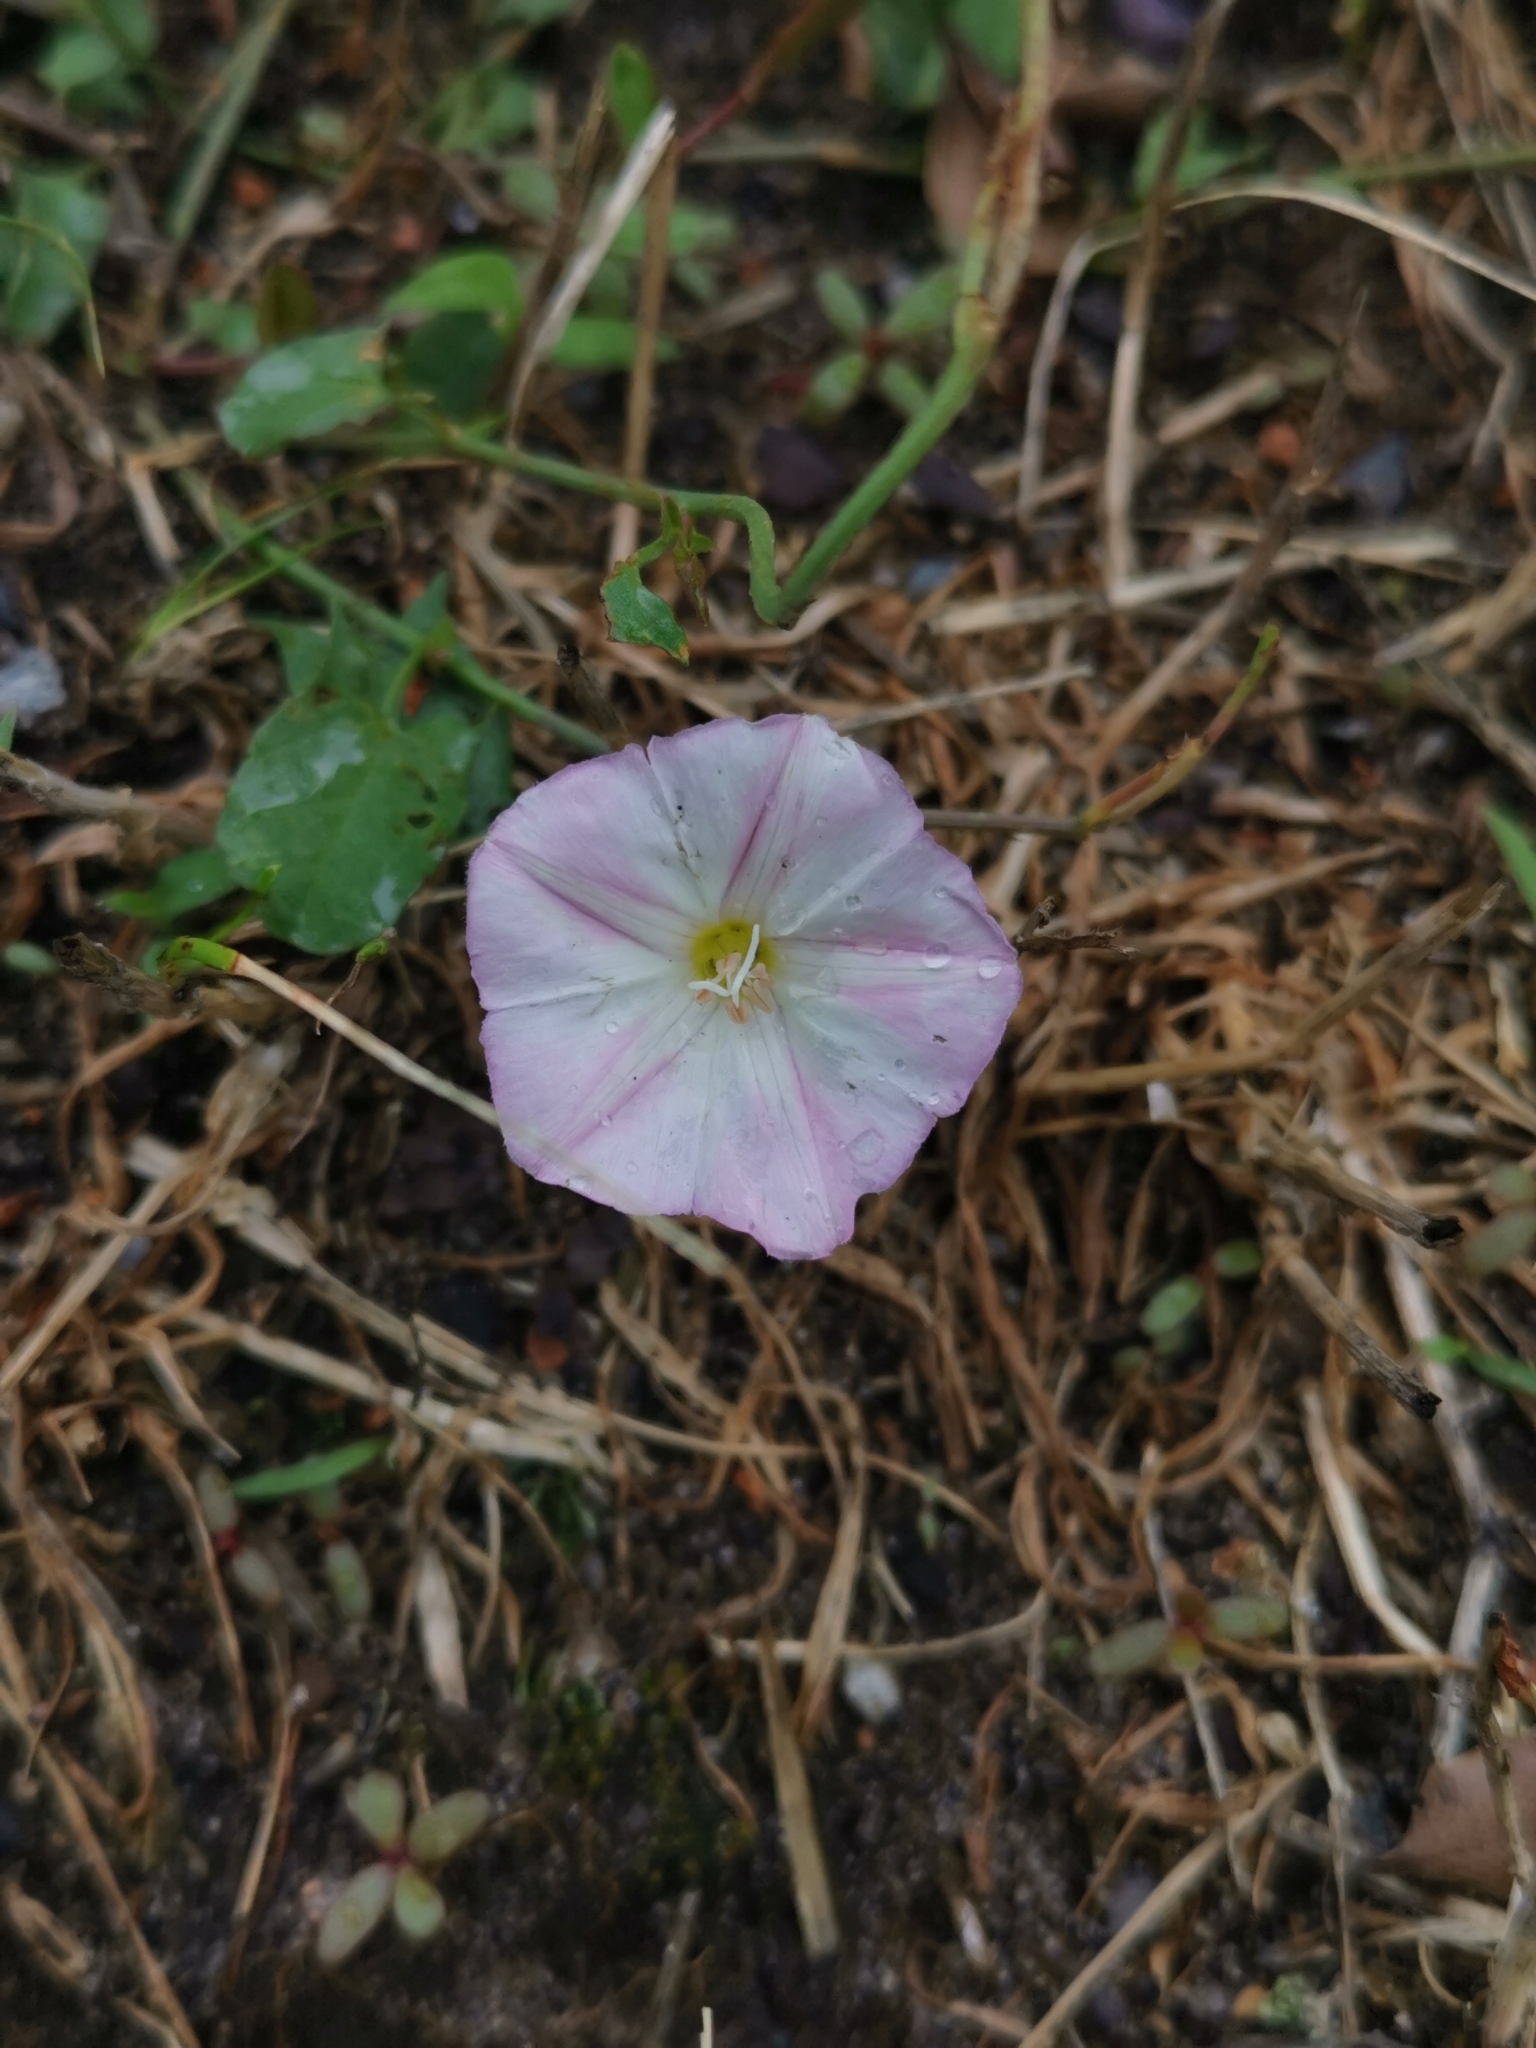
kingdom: Plantae
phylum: Tracheophyta
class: Magnoliopsida
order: Solanales
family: Convolvulaceae
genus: Convolvulus
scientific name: Convolvulus arvensis
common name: Field bindweed
